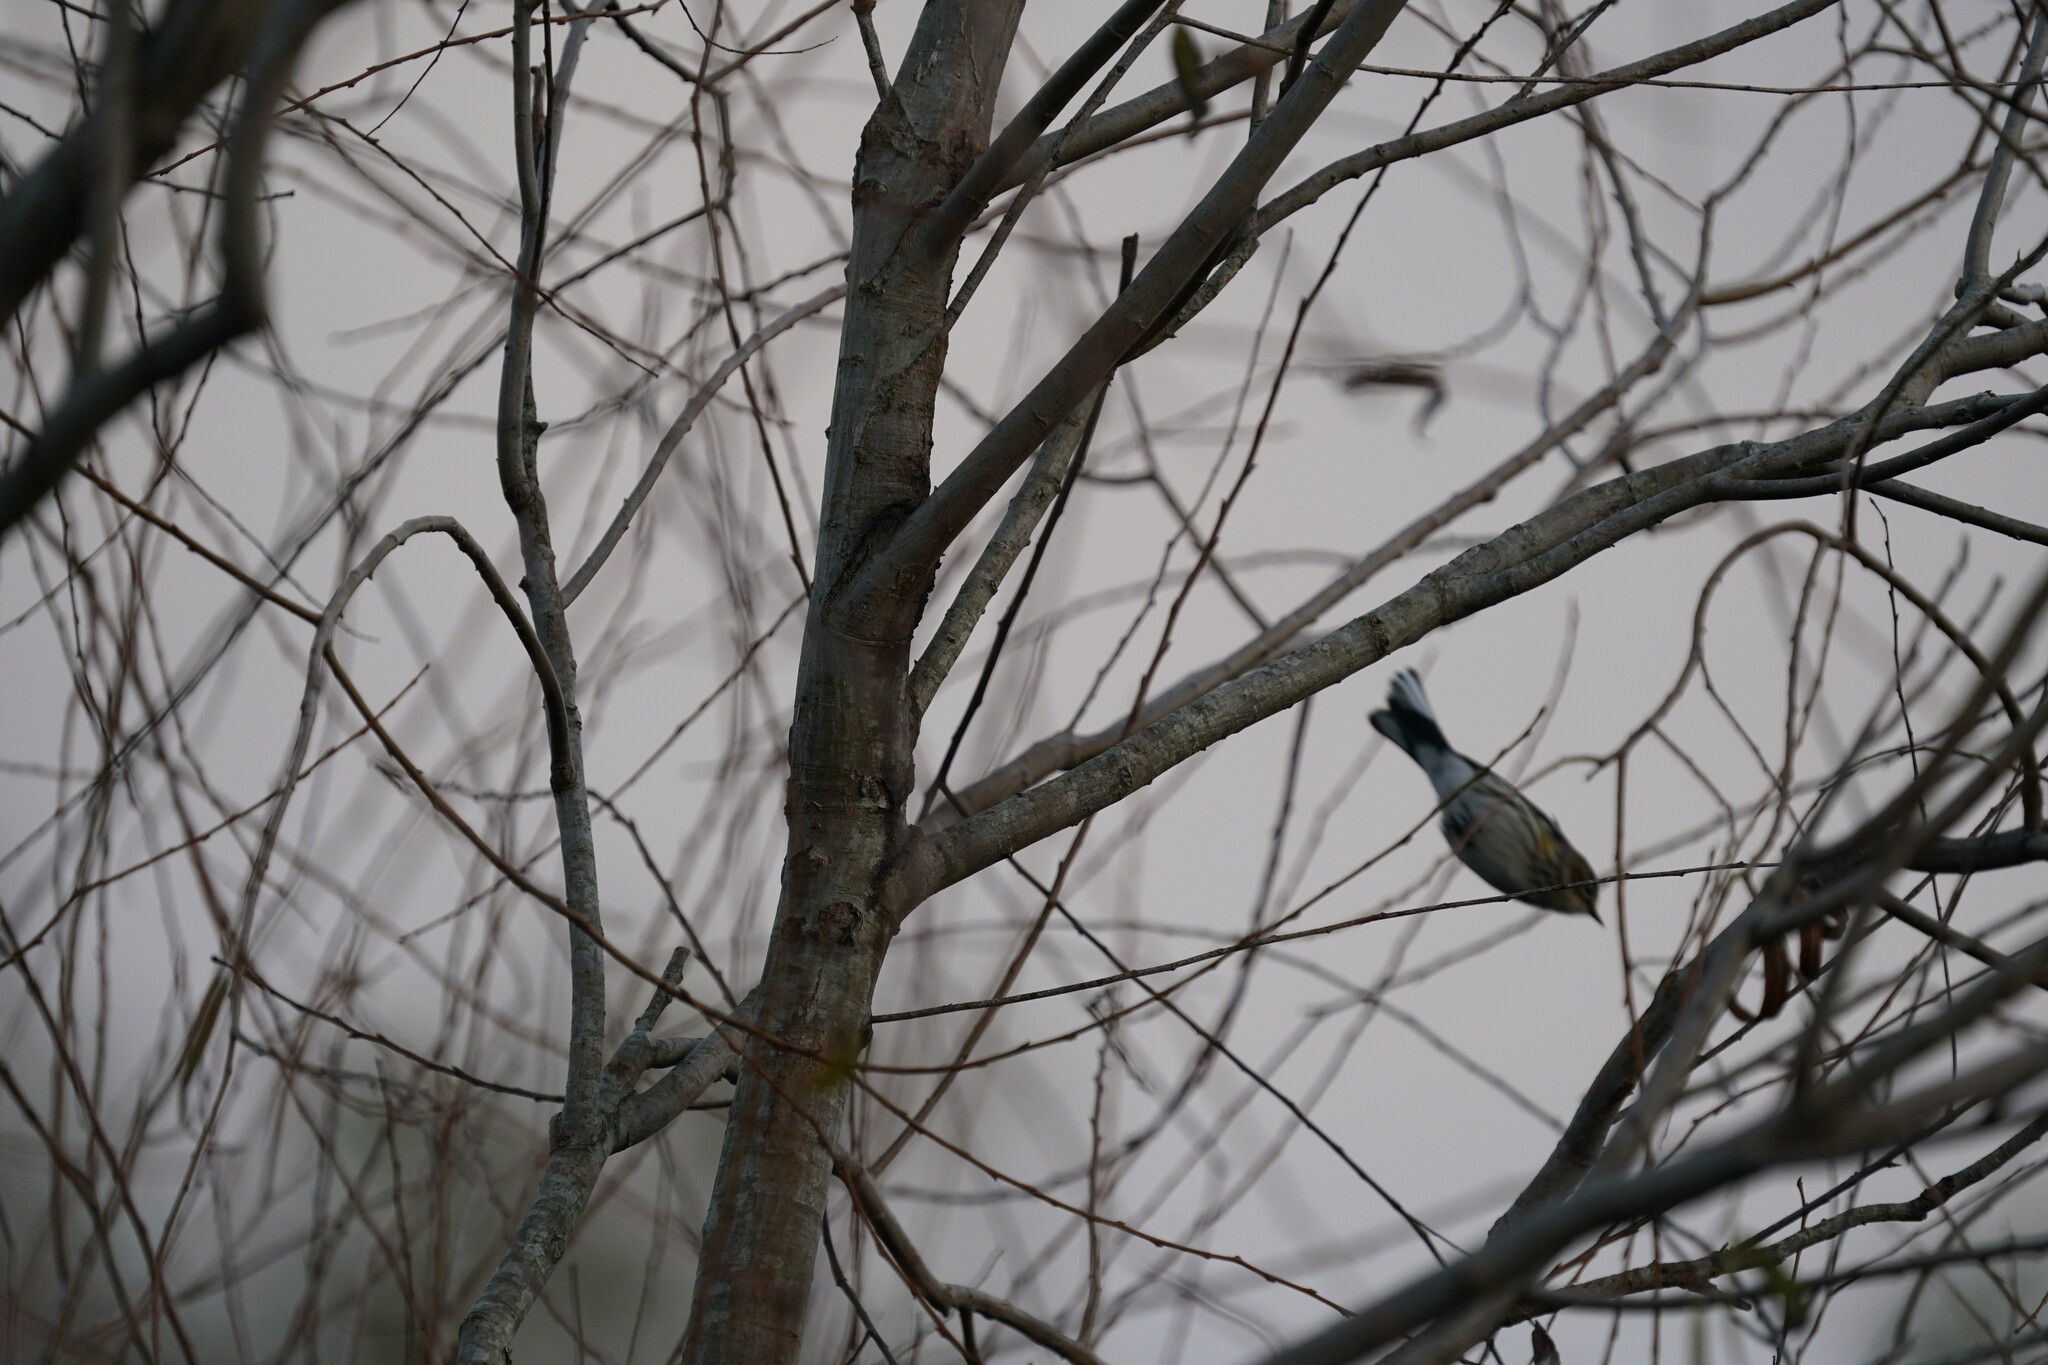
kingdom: Animalia
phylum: Chordata
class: Aves
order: Passeriformes
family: Parulidae
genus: Setophaga
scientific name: Setophaga coronata
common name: Myrtle warbler
